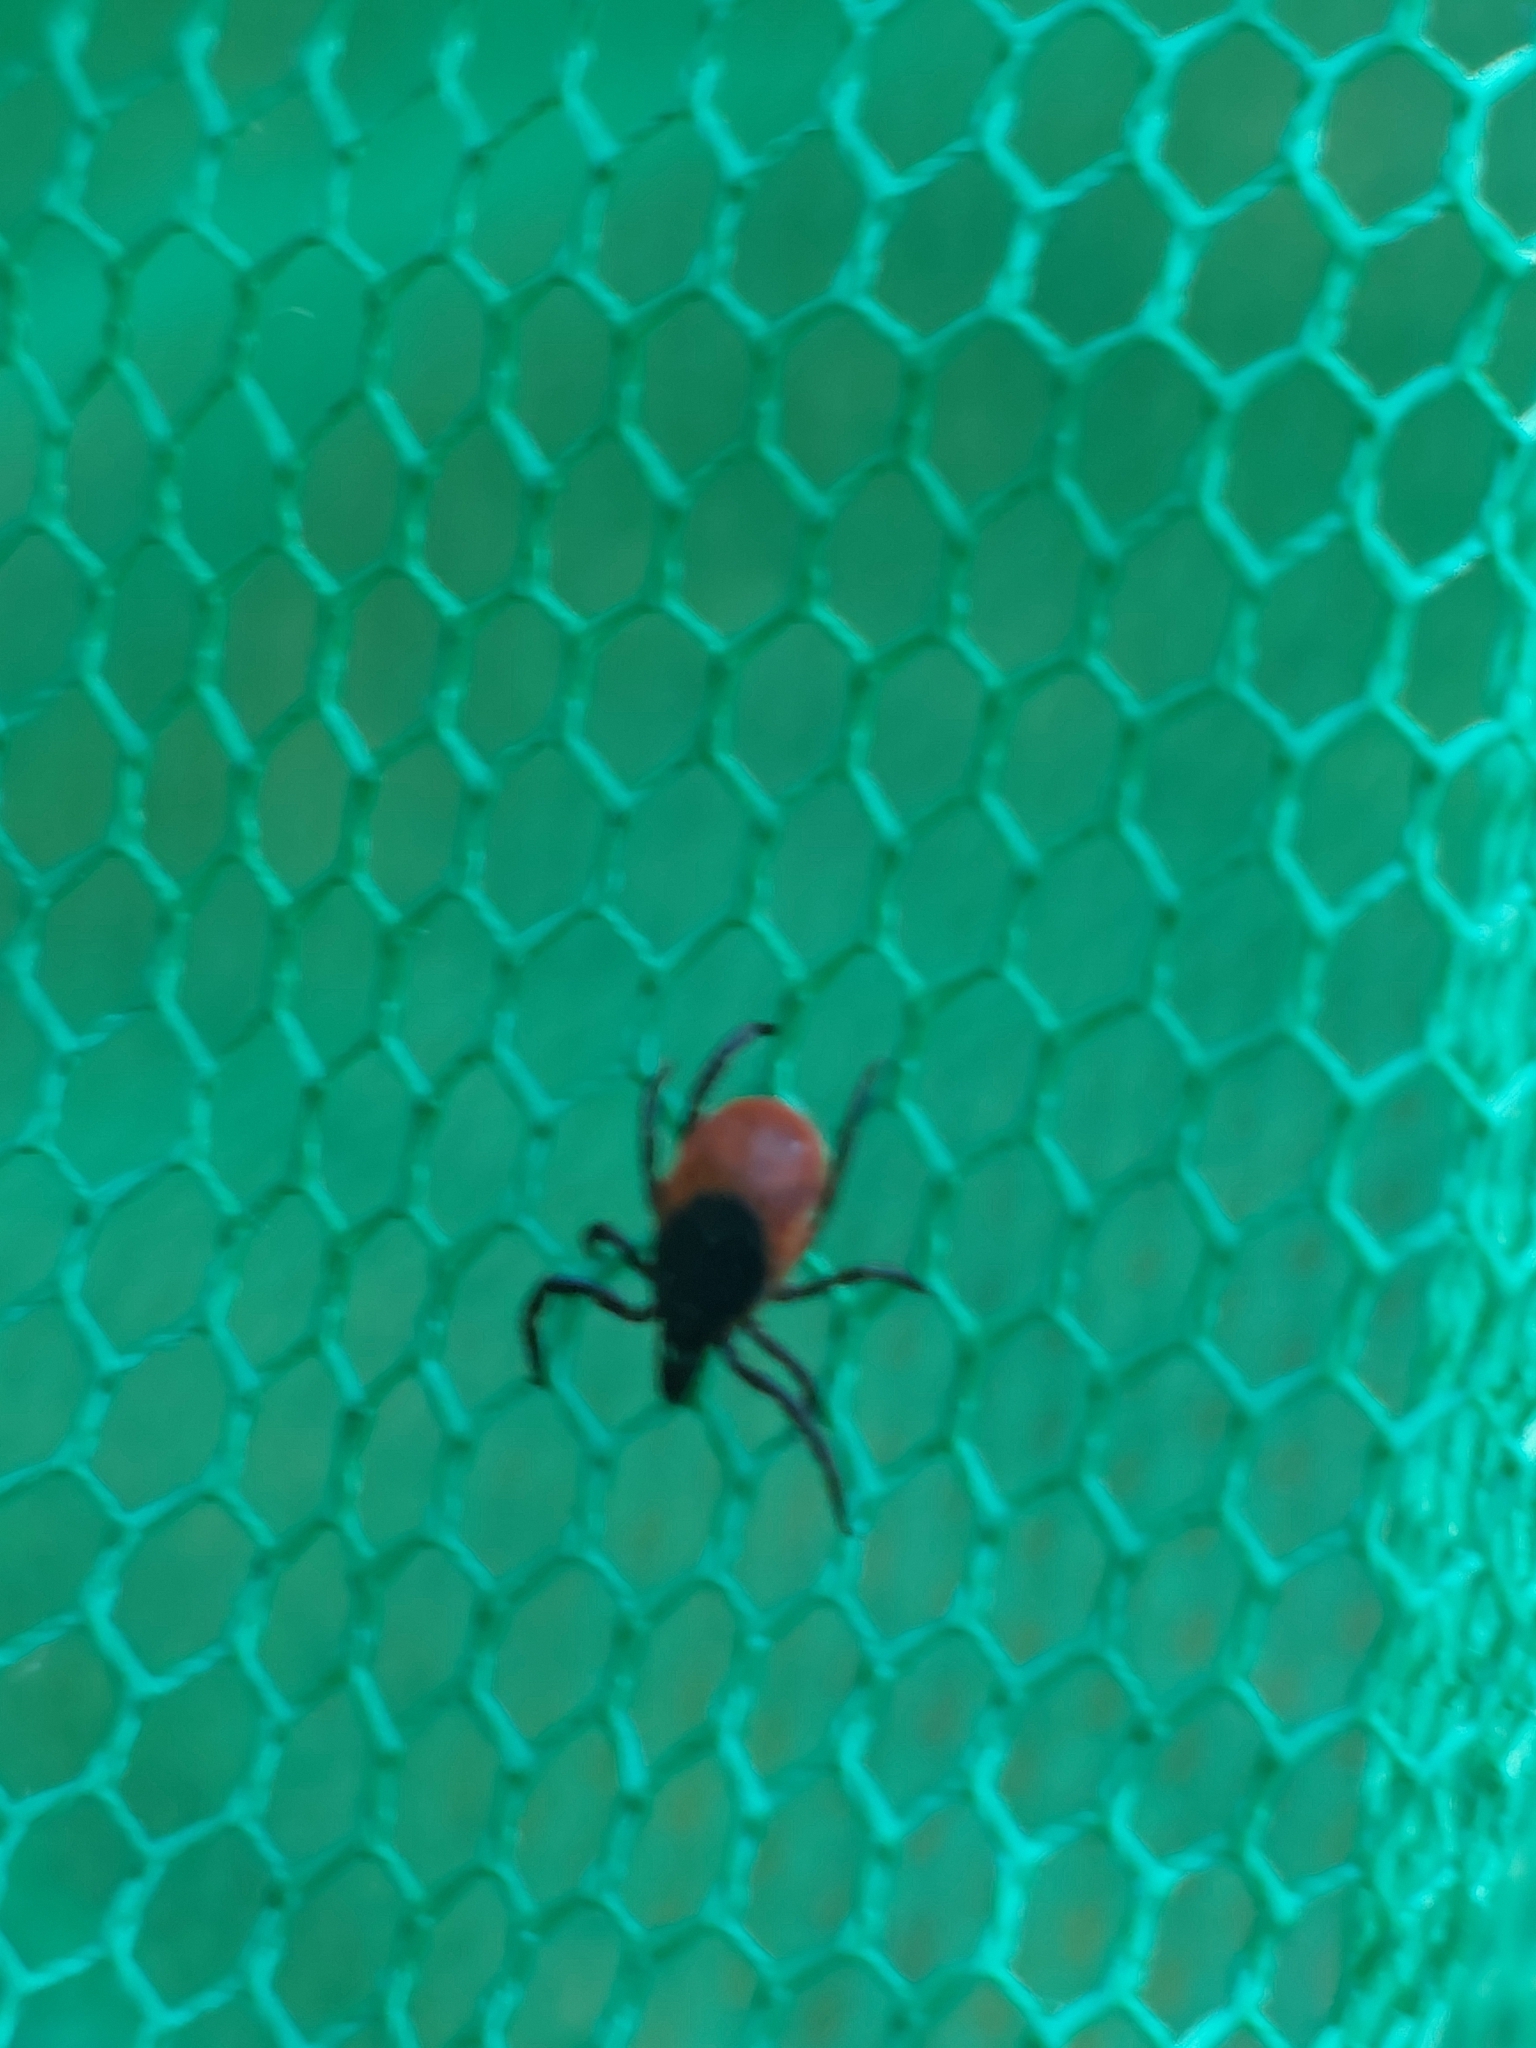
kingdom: Animalia
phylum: Arthropoda
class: Arachnida
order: Ixodida
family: Ixodidae
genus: Ixodes
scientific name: Ixodes ricinus
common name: Castor bean tick
